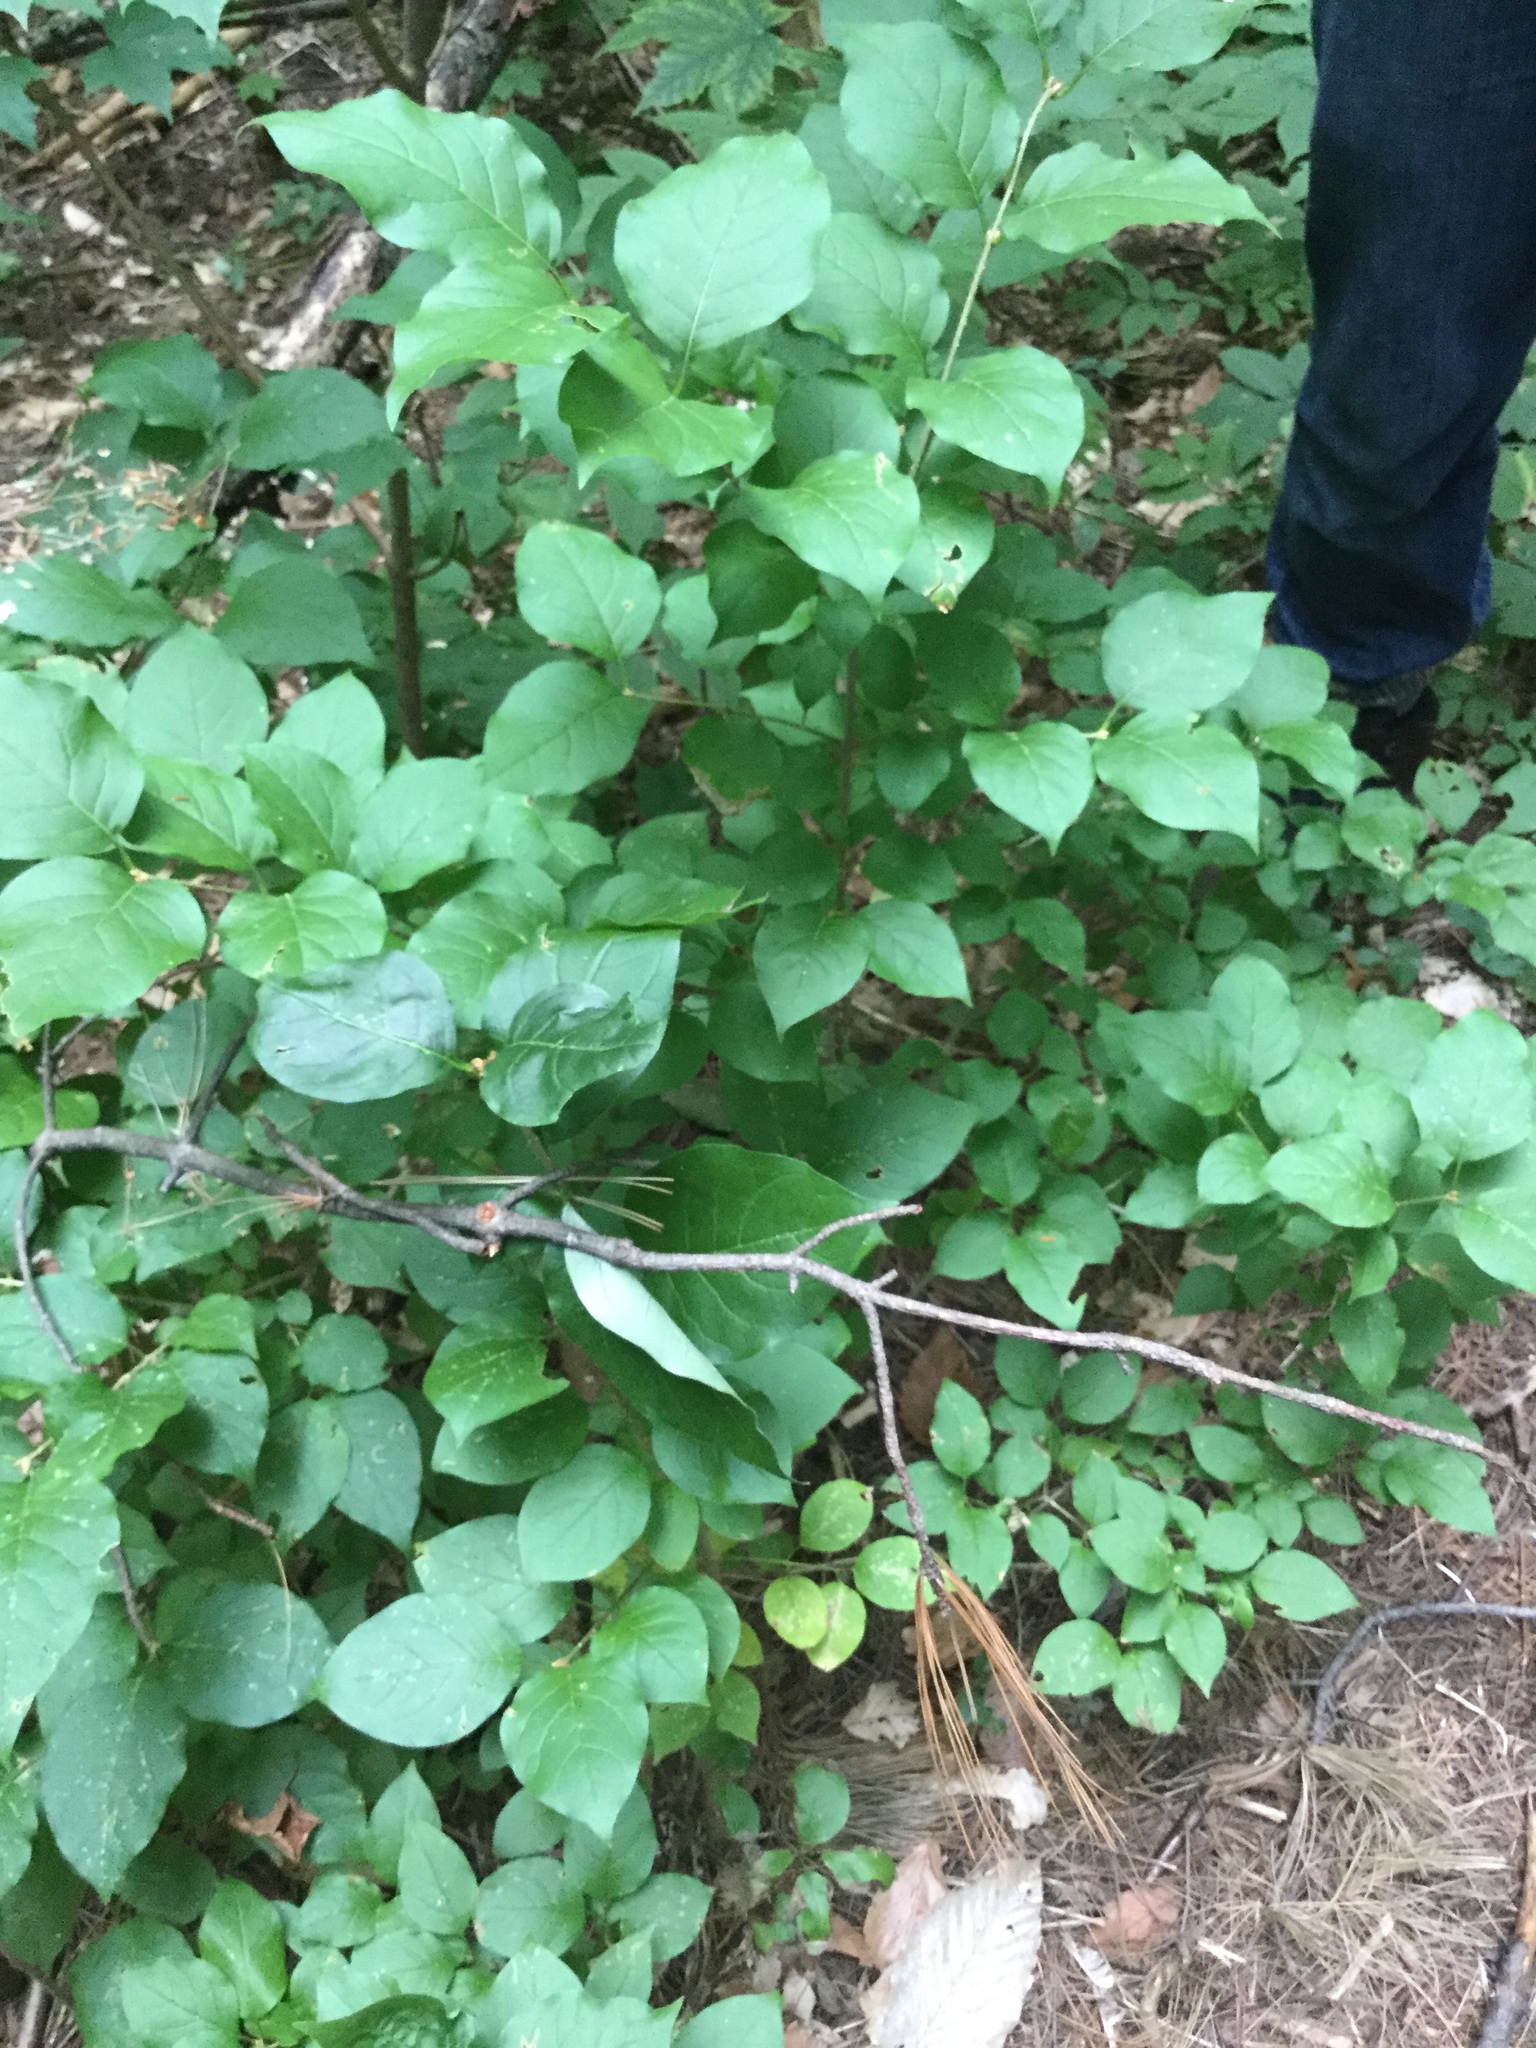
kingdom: Plantae
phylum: Tracheophyta
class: Magnoliopsida
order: Lamiales
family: Oleaceae
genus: Syringa
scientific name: Syringa reticulata
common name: Japanese tree lilac
